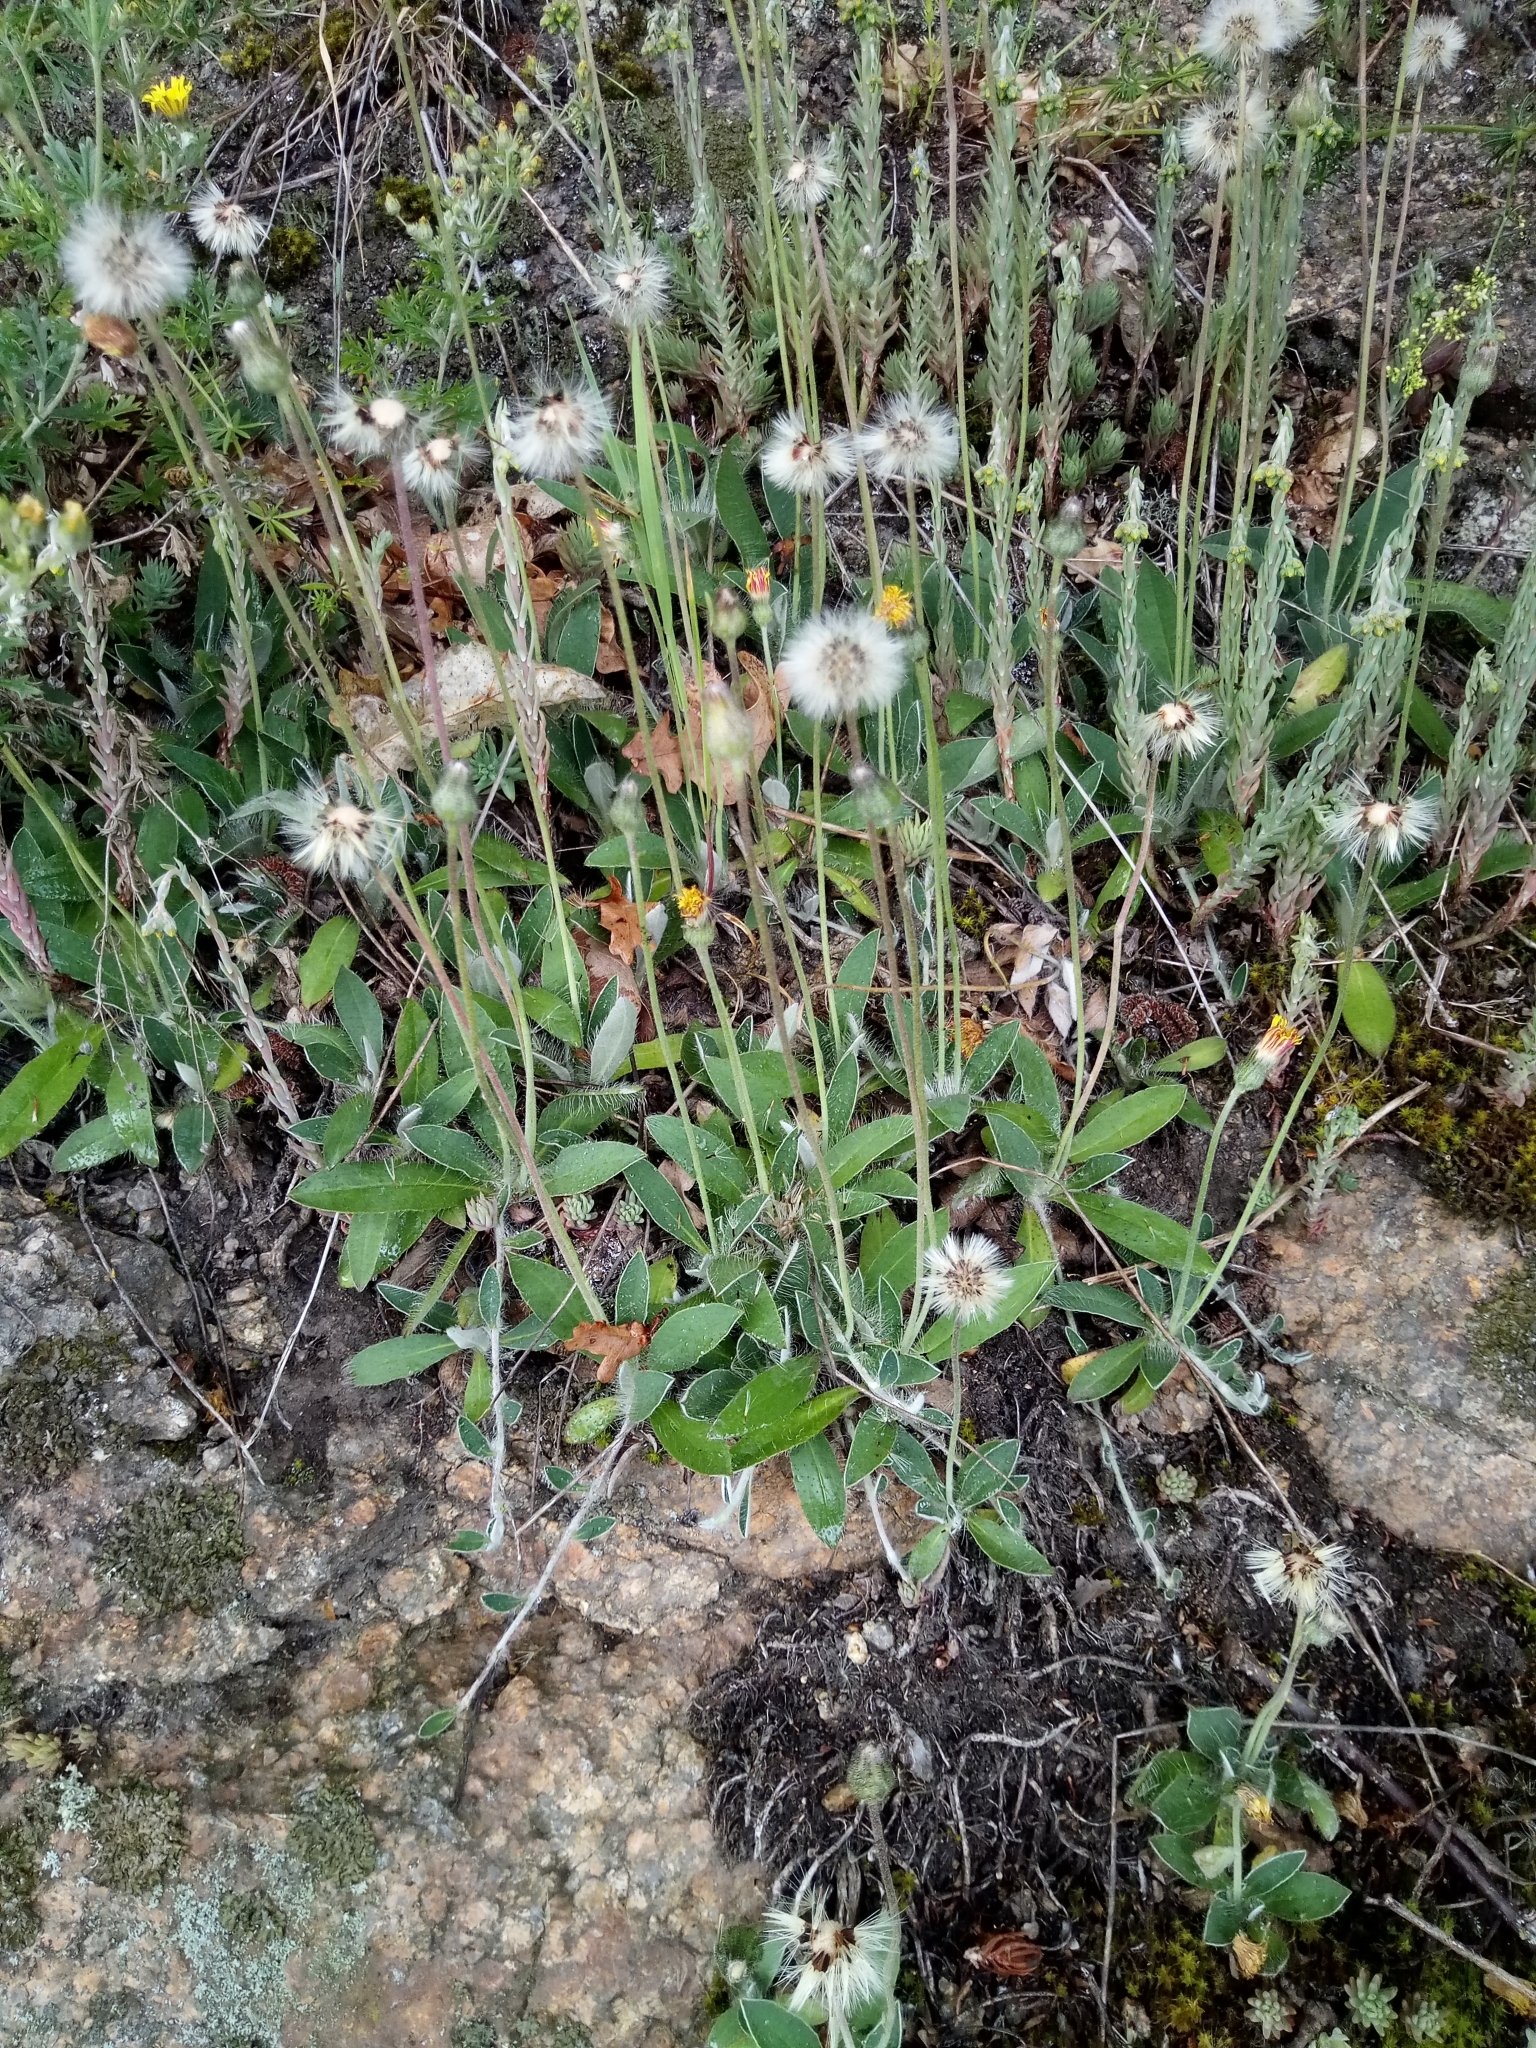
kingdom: Plantae
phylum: Tracheophyta
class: Magnoliopsida
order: Asterales
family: Asteraceae
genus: Pilosella
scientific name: Pilosella officinarum
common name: Mouse-ear hawkweed
